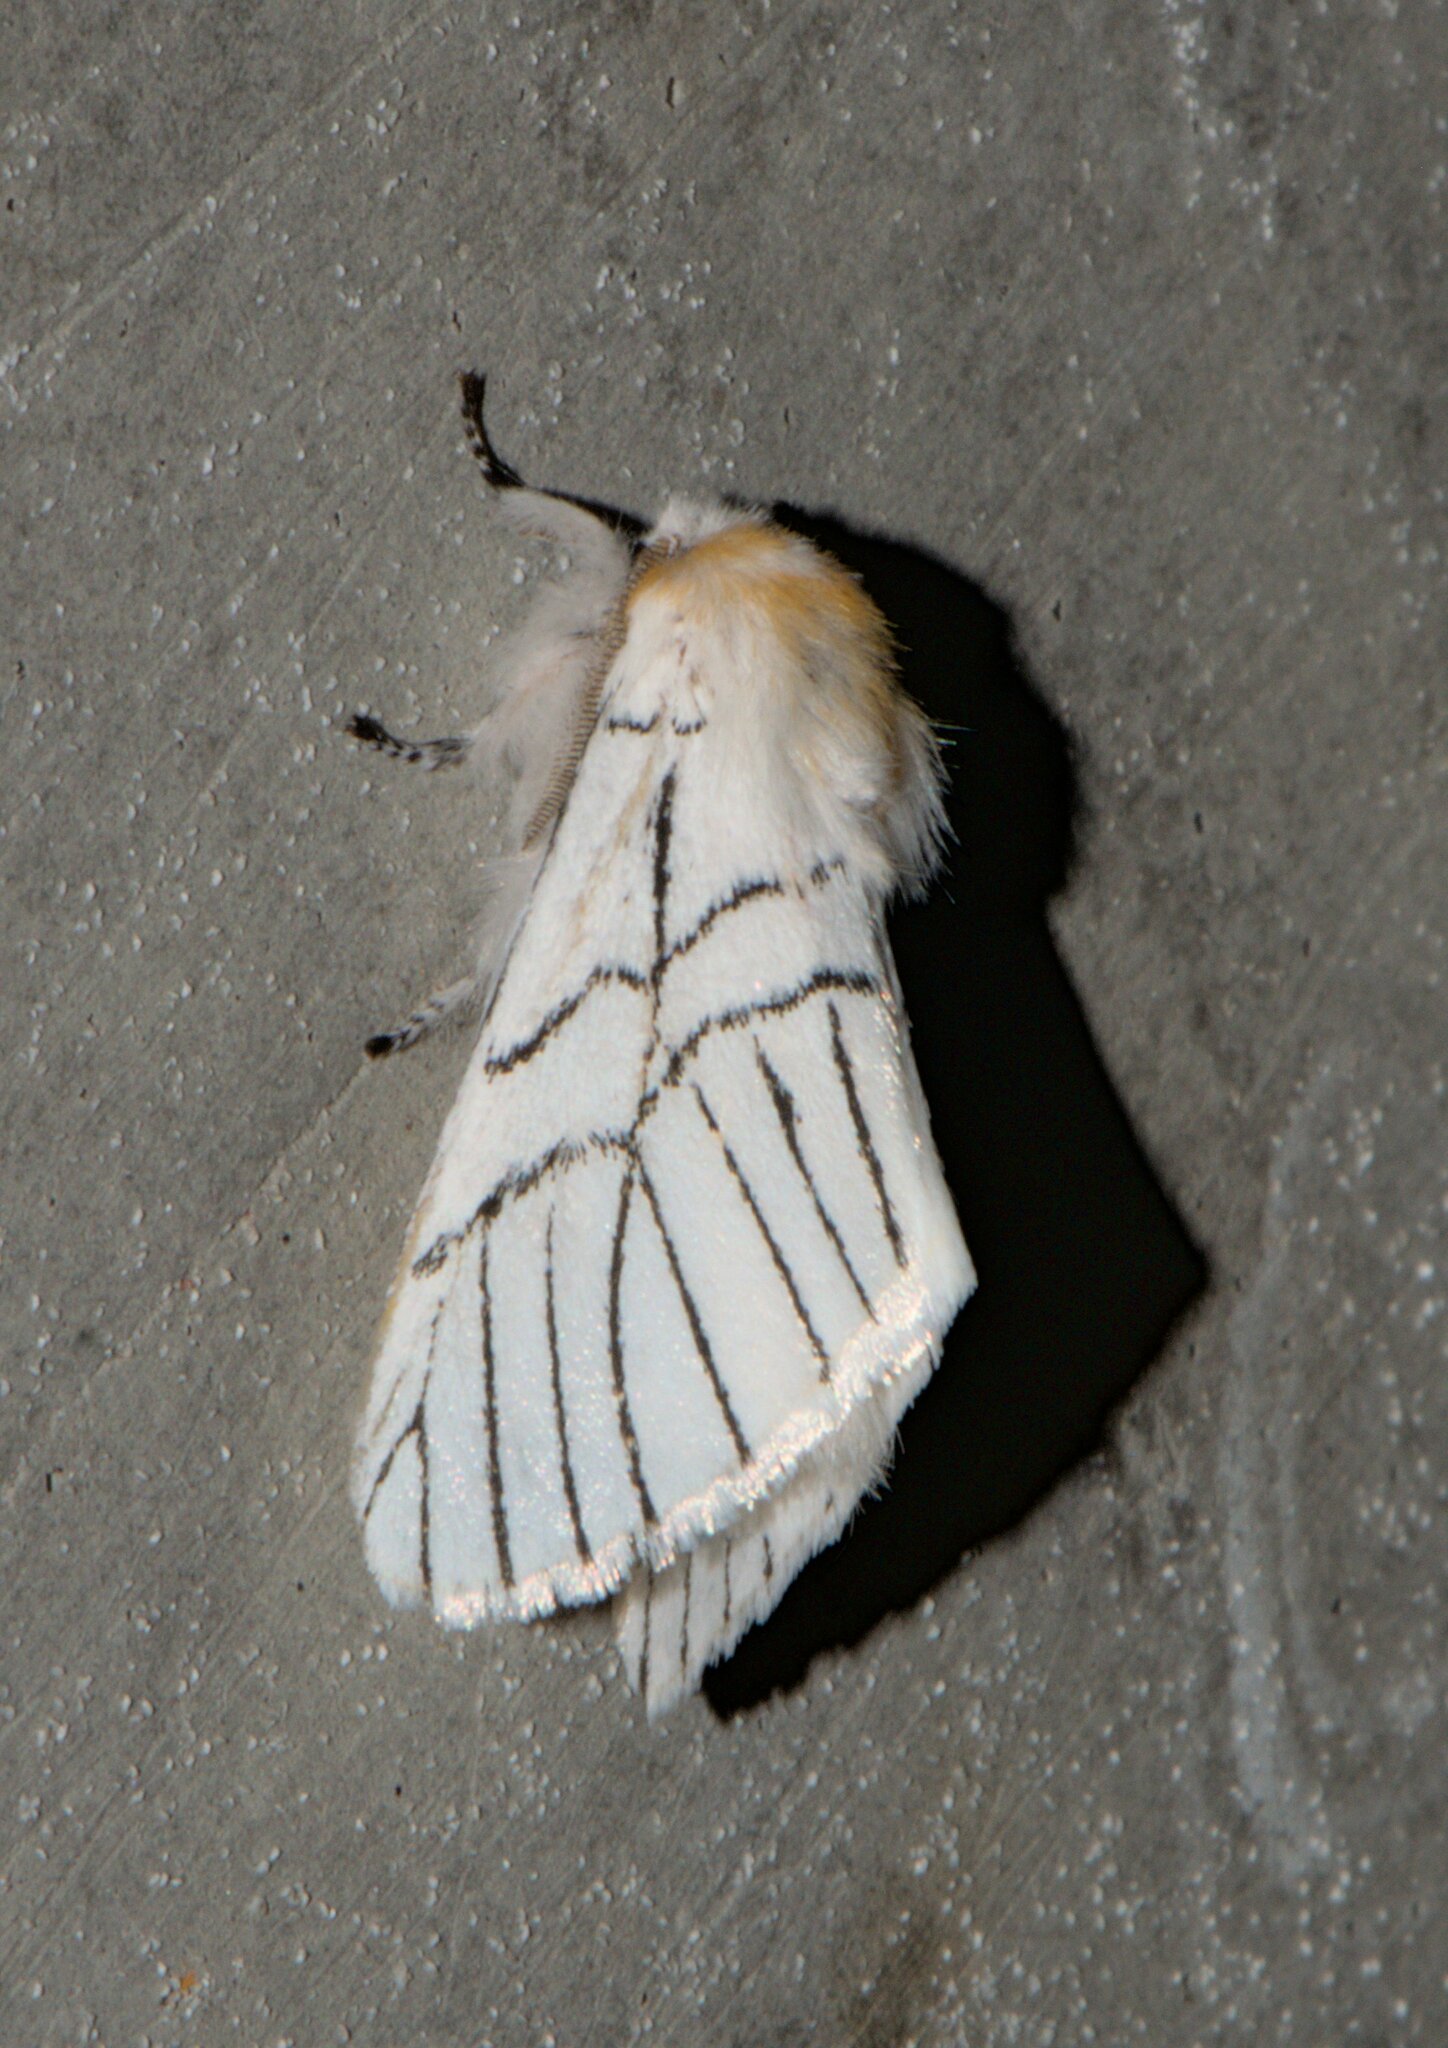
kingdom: Animalia
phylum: Arthropoda
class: Insecta
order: Lepidoptera
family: Notodontidae
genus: Oligoclona
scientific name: Oligoclona chrysolopha
